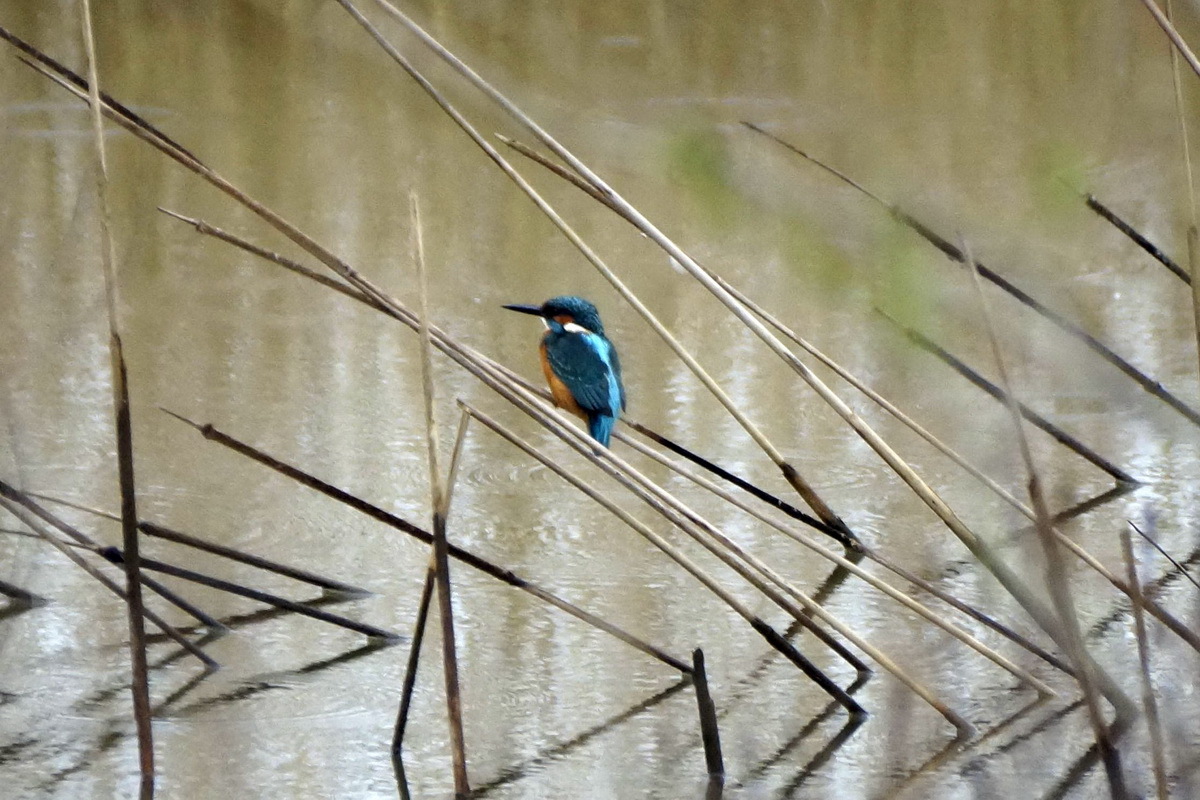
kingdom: Animalia
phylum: Chordata
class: Aves
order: Coraciiformes
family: Alcedinidae
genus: Alcedo
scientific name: Alcedo atthis
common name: Common kingfisher
